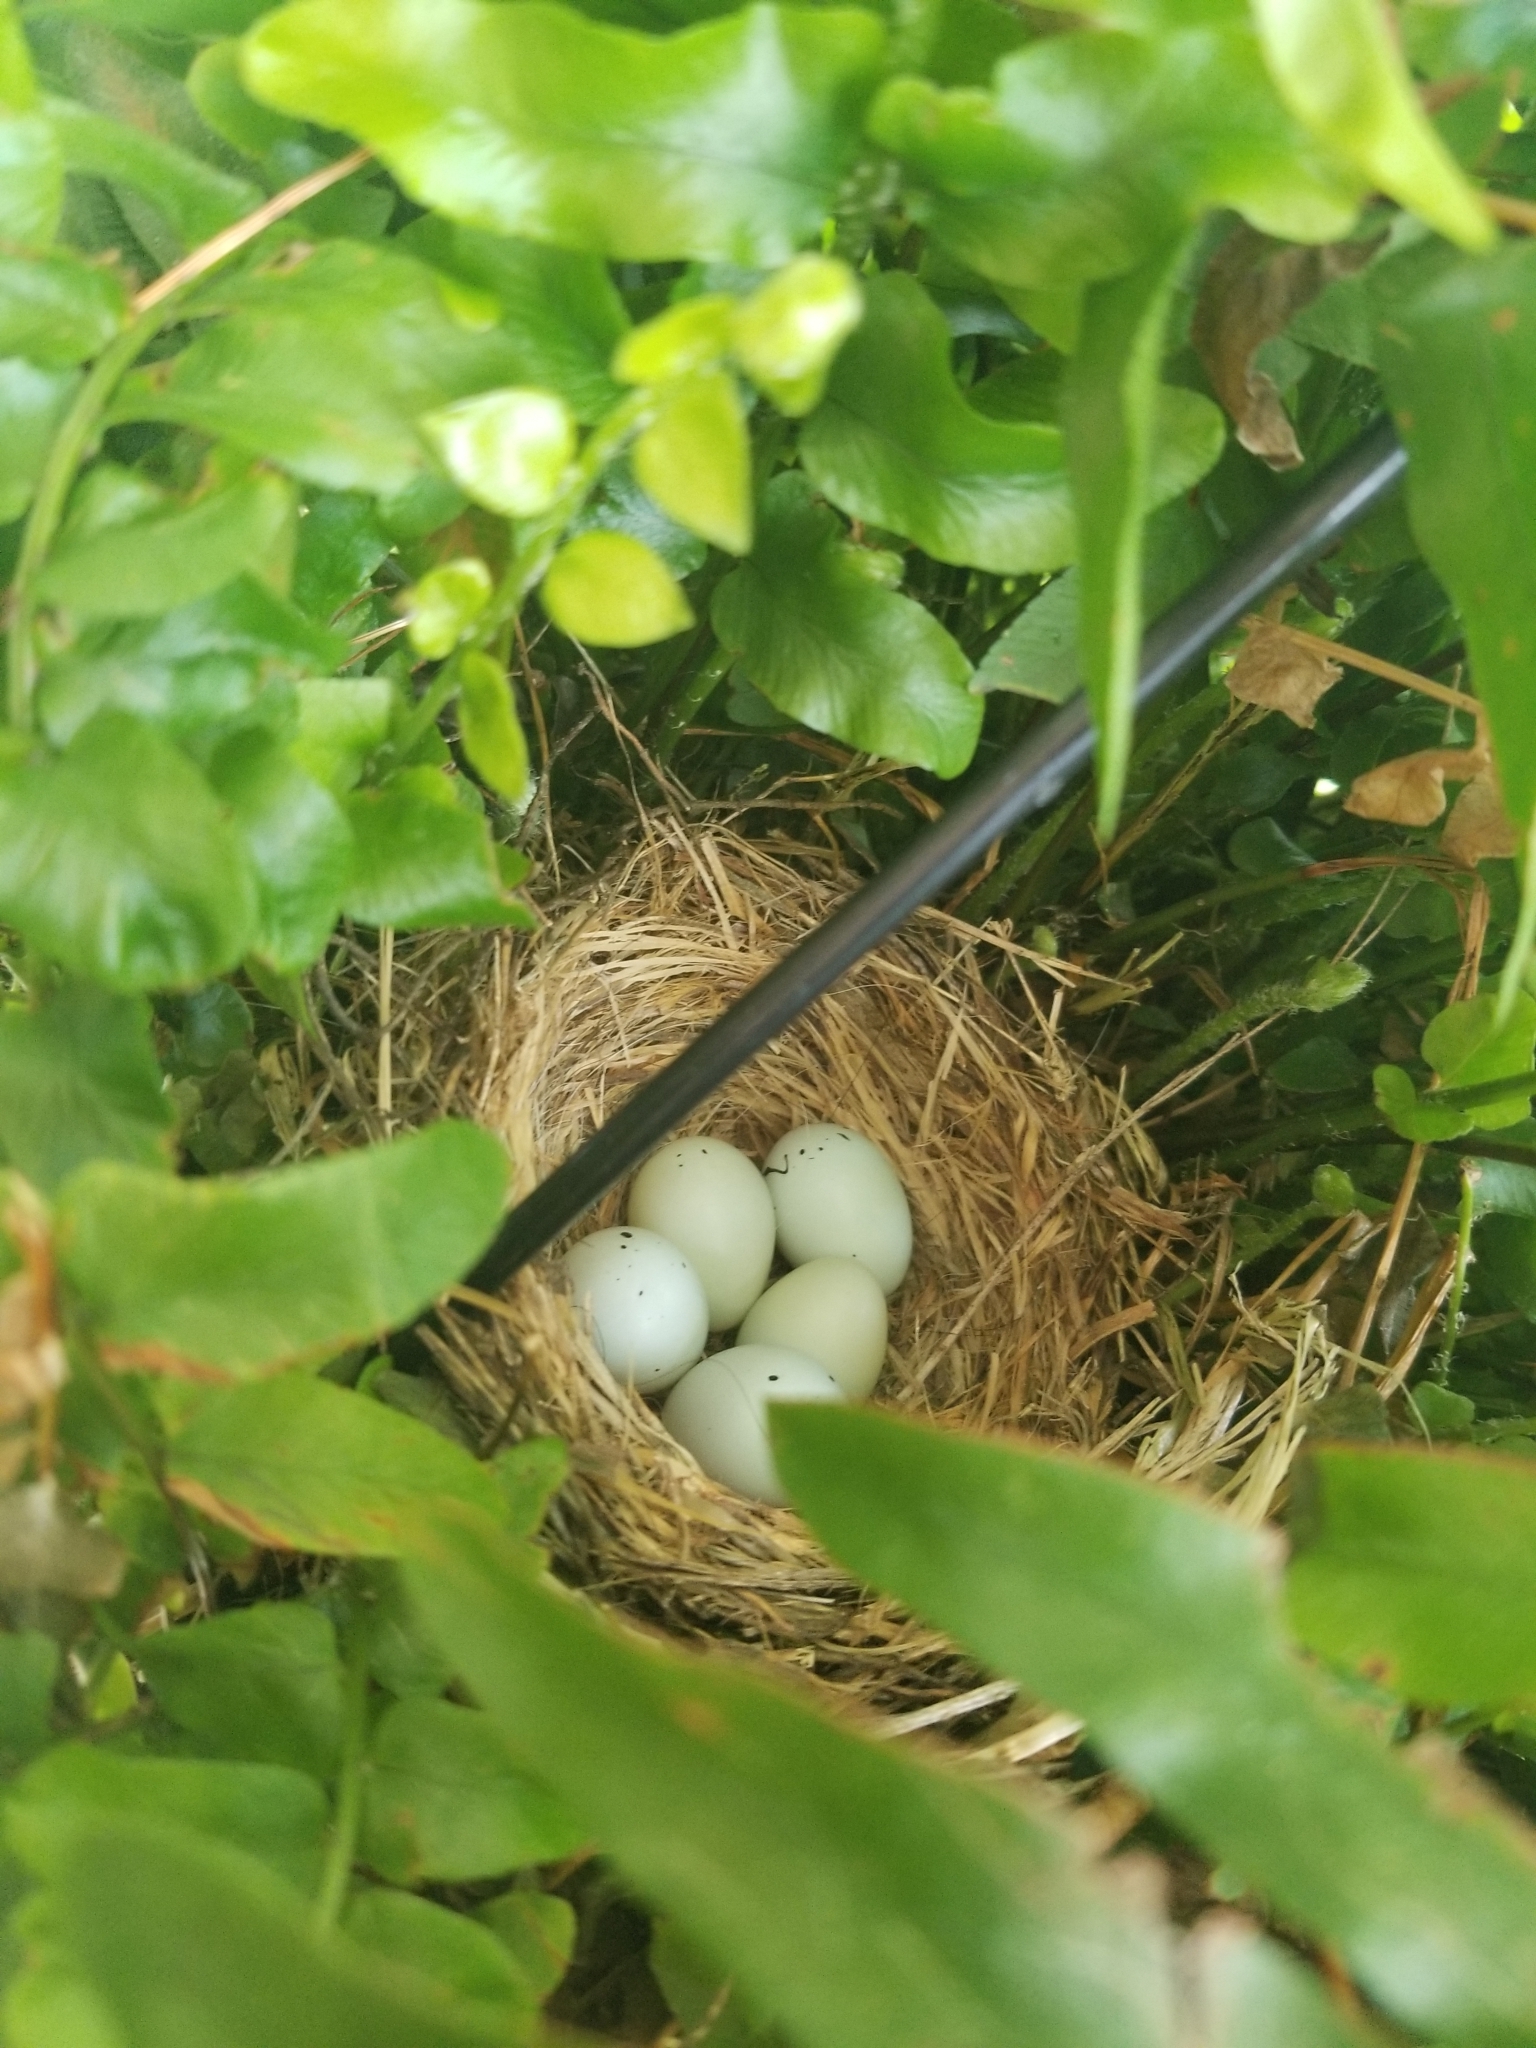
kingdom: Animalia
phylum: Chordata
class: Aves
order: Passeriformes
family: Fringillidae
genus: Haemorhous
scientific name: Haemorhous mexicanus
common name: House finch
